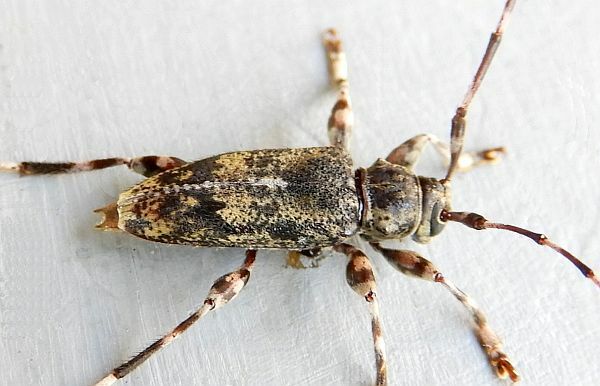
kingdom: Animalia
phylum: Arthropoda
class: Insecta
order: Coleoptera
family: Cerambycidae
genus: Graphisurus
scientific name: Graphisurus fasciatus
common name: Banded graphisurus
